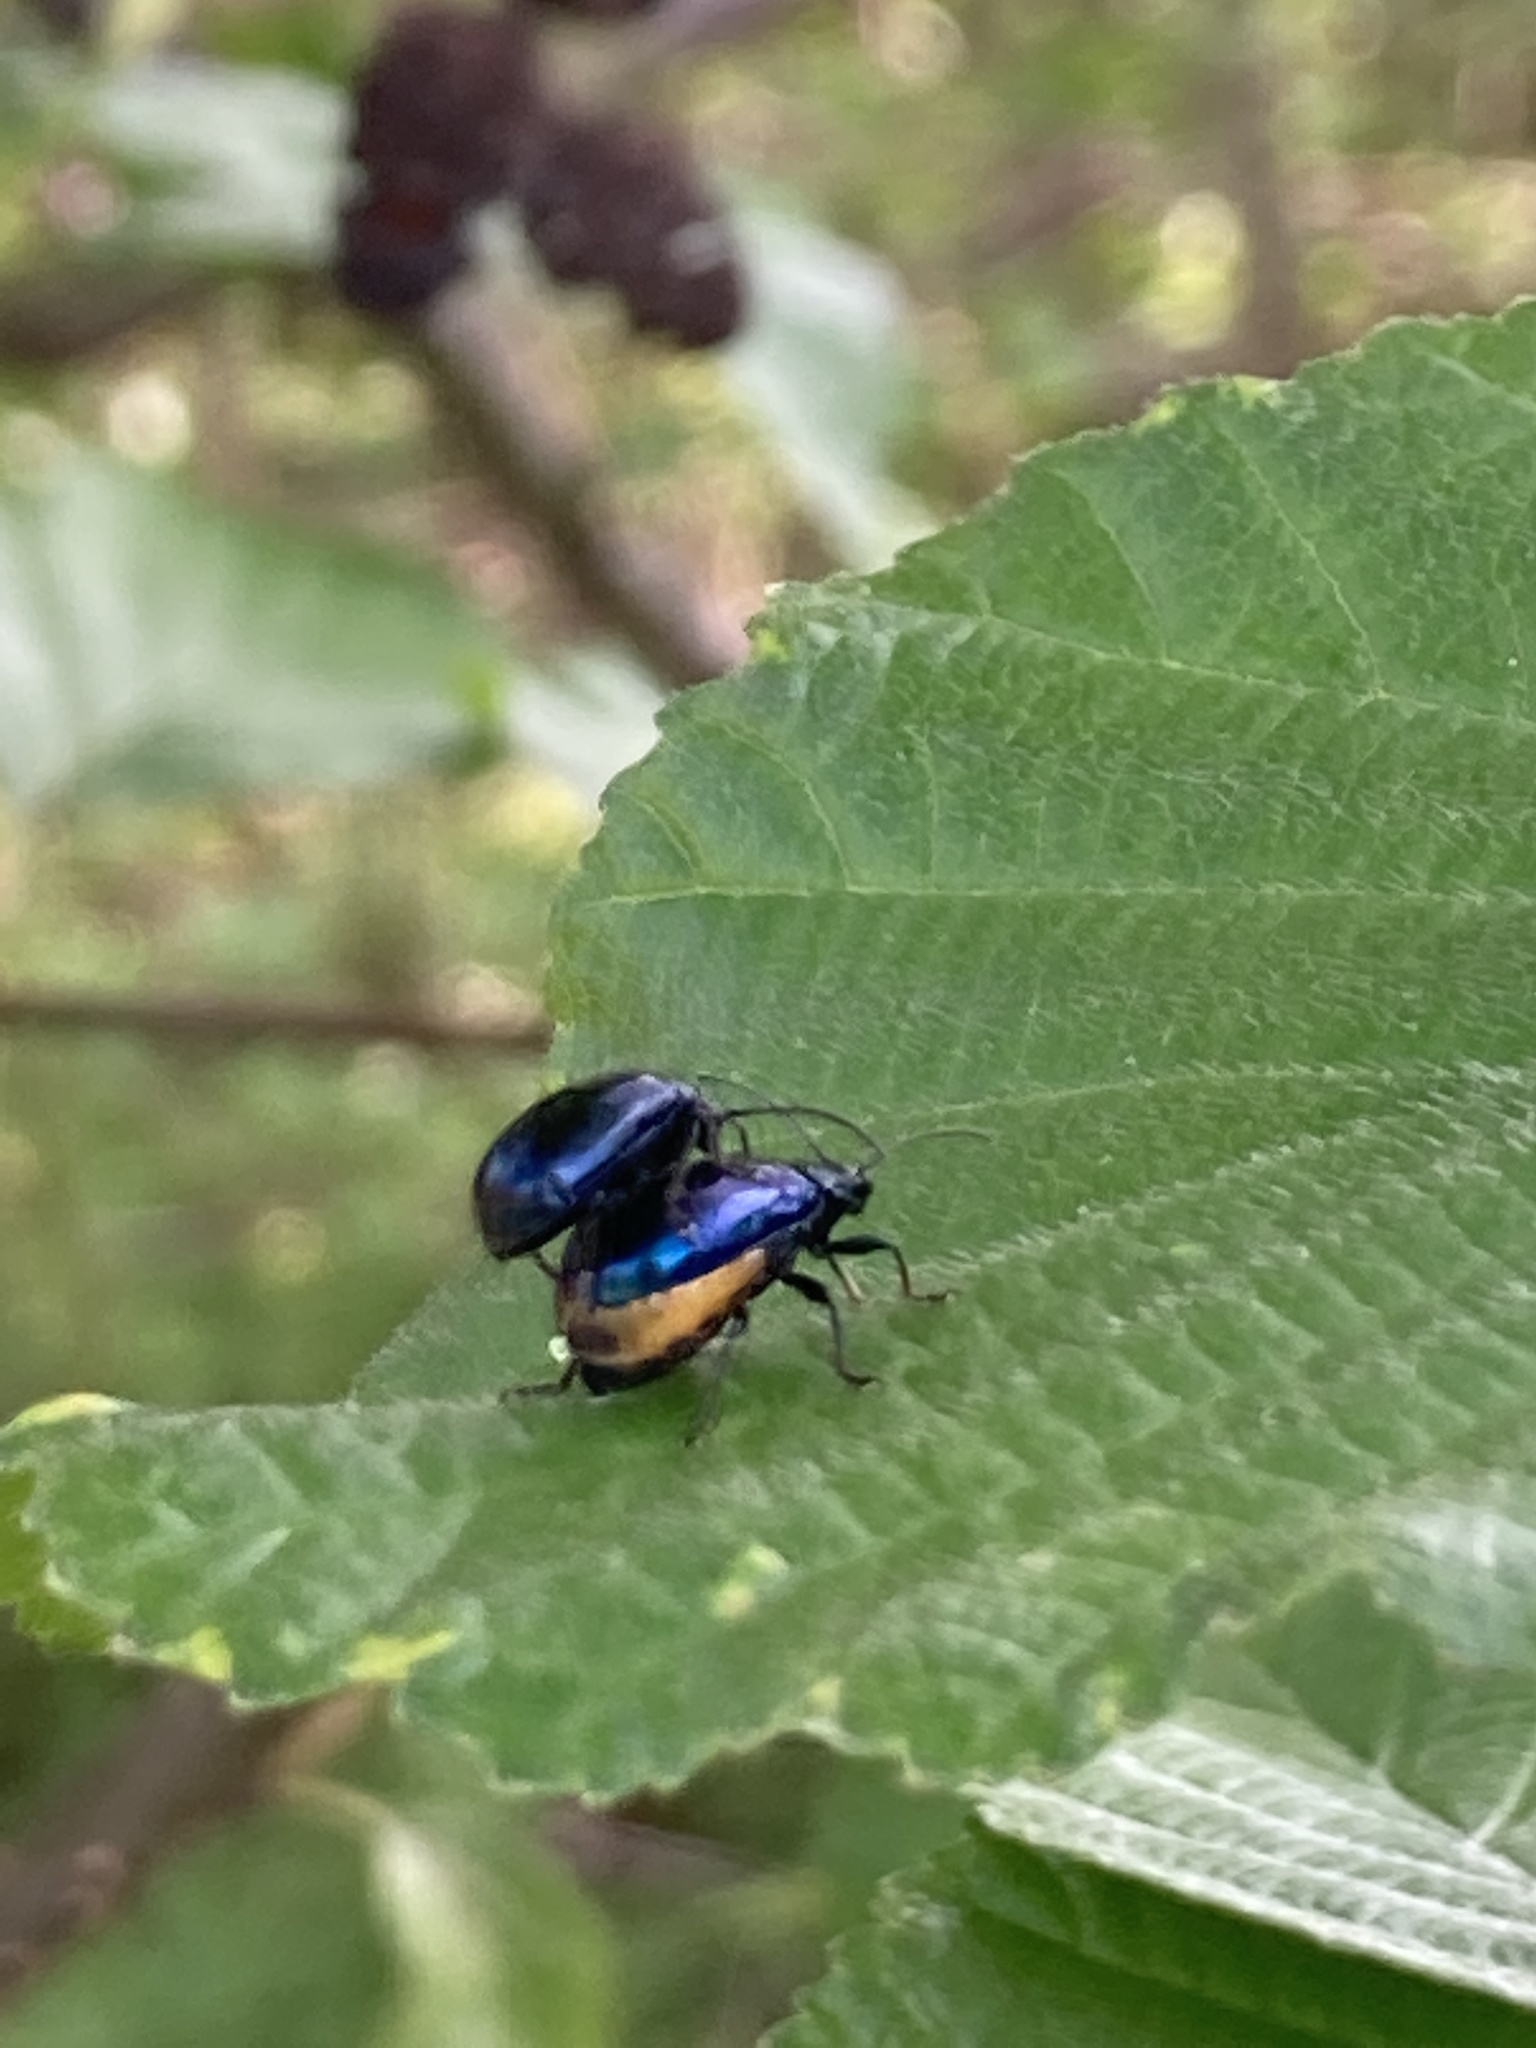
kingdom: Animalia
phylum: Arthropoda
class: Insecta
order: Coleoptera
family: Chrysomelidae
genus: Agelastica
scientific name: Agelastica alni
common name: Alder leaf beetle
